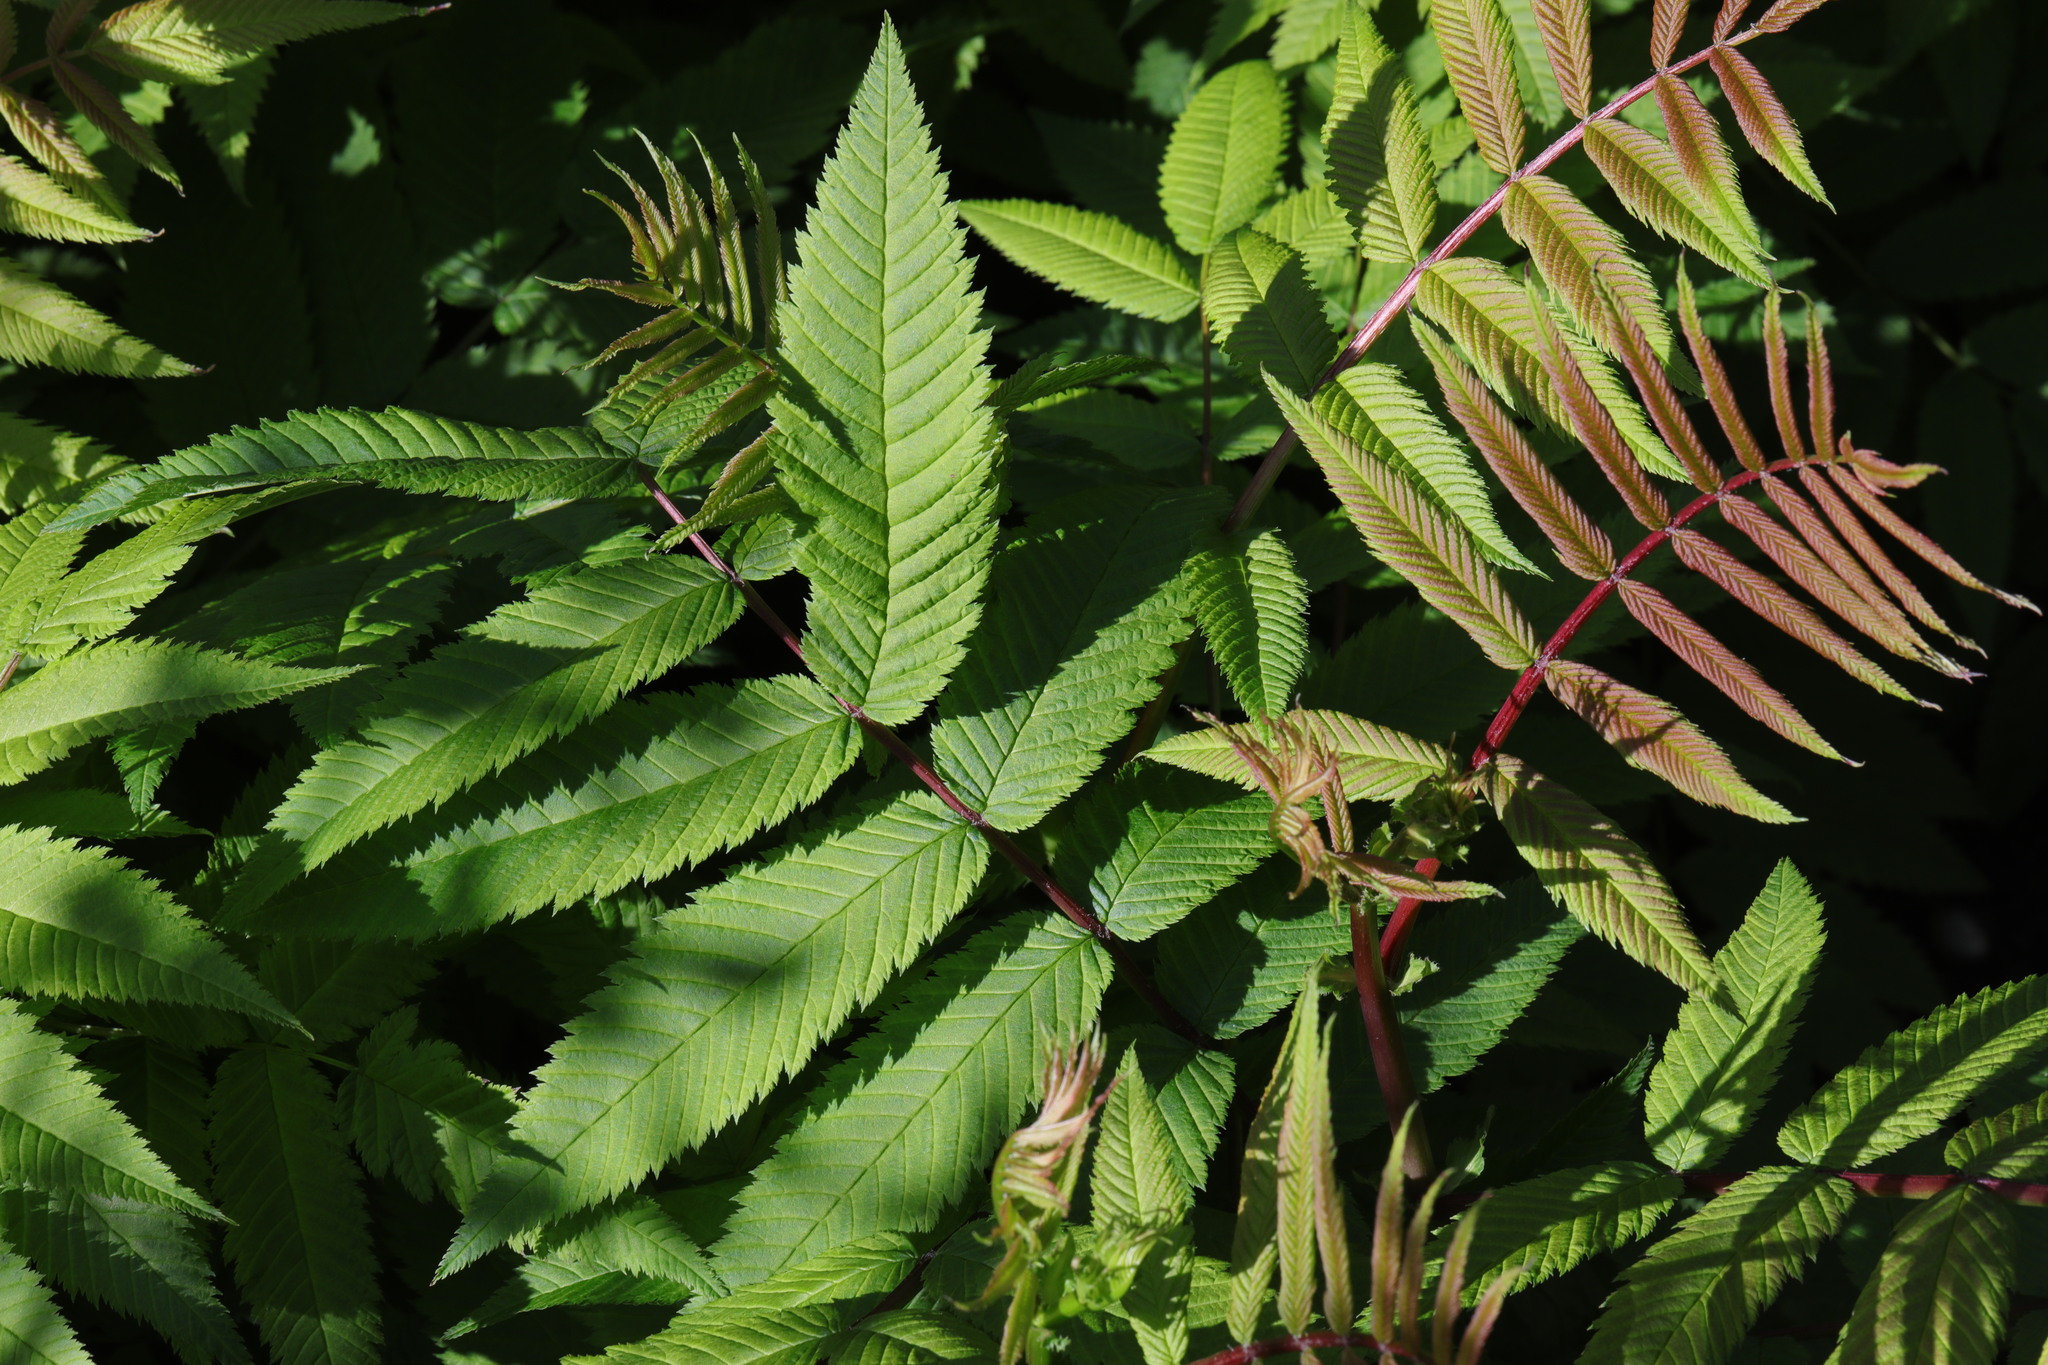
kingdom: Plantae
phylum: Tracheophyta
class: Magnoliopsida
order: Rosales
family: Rosaceae
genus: Sorbaria
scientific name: Sorbaria sorbifolia
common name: False spiraea
